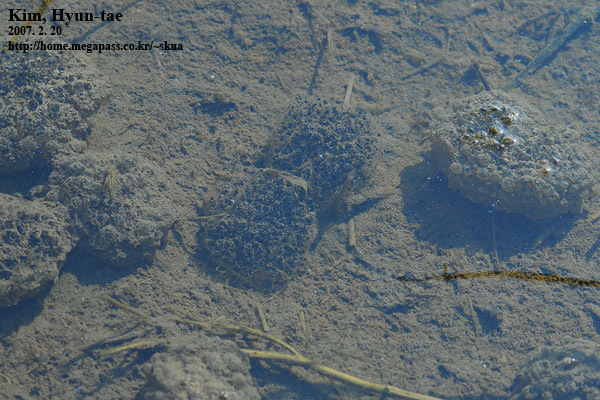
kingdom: Animalia
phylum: Chordata
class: Amphibia
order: Anura
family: Ranidae
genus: Rana
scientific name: Rana coreana
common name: Korean brown frog
